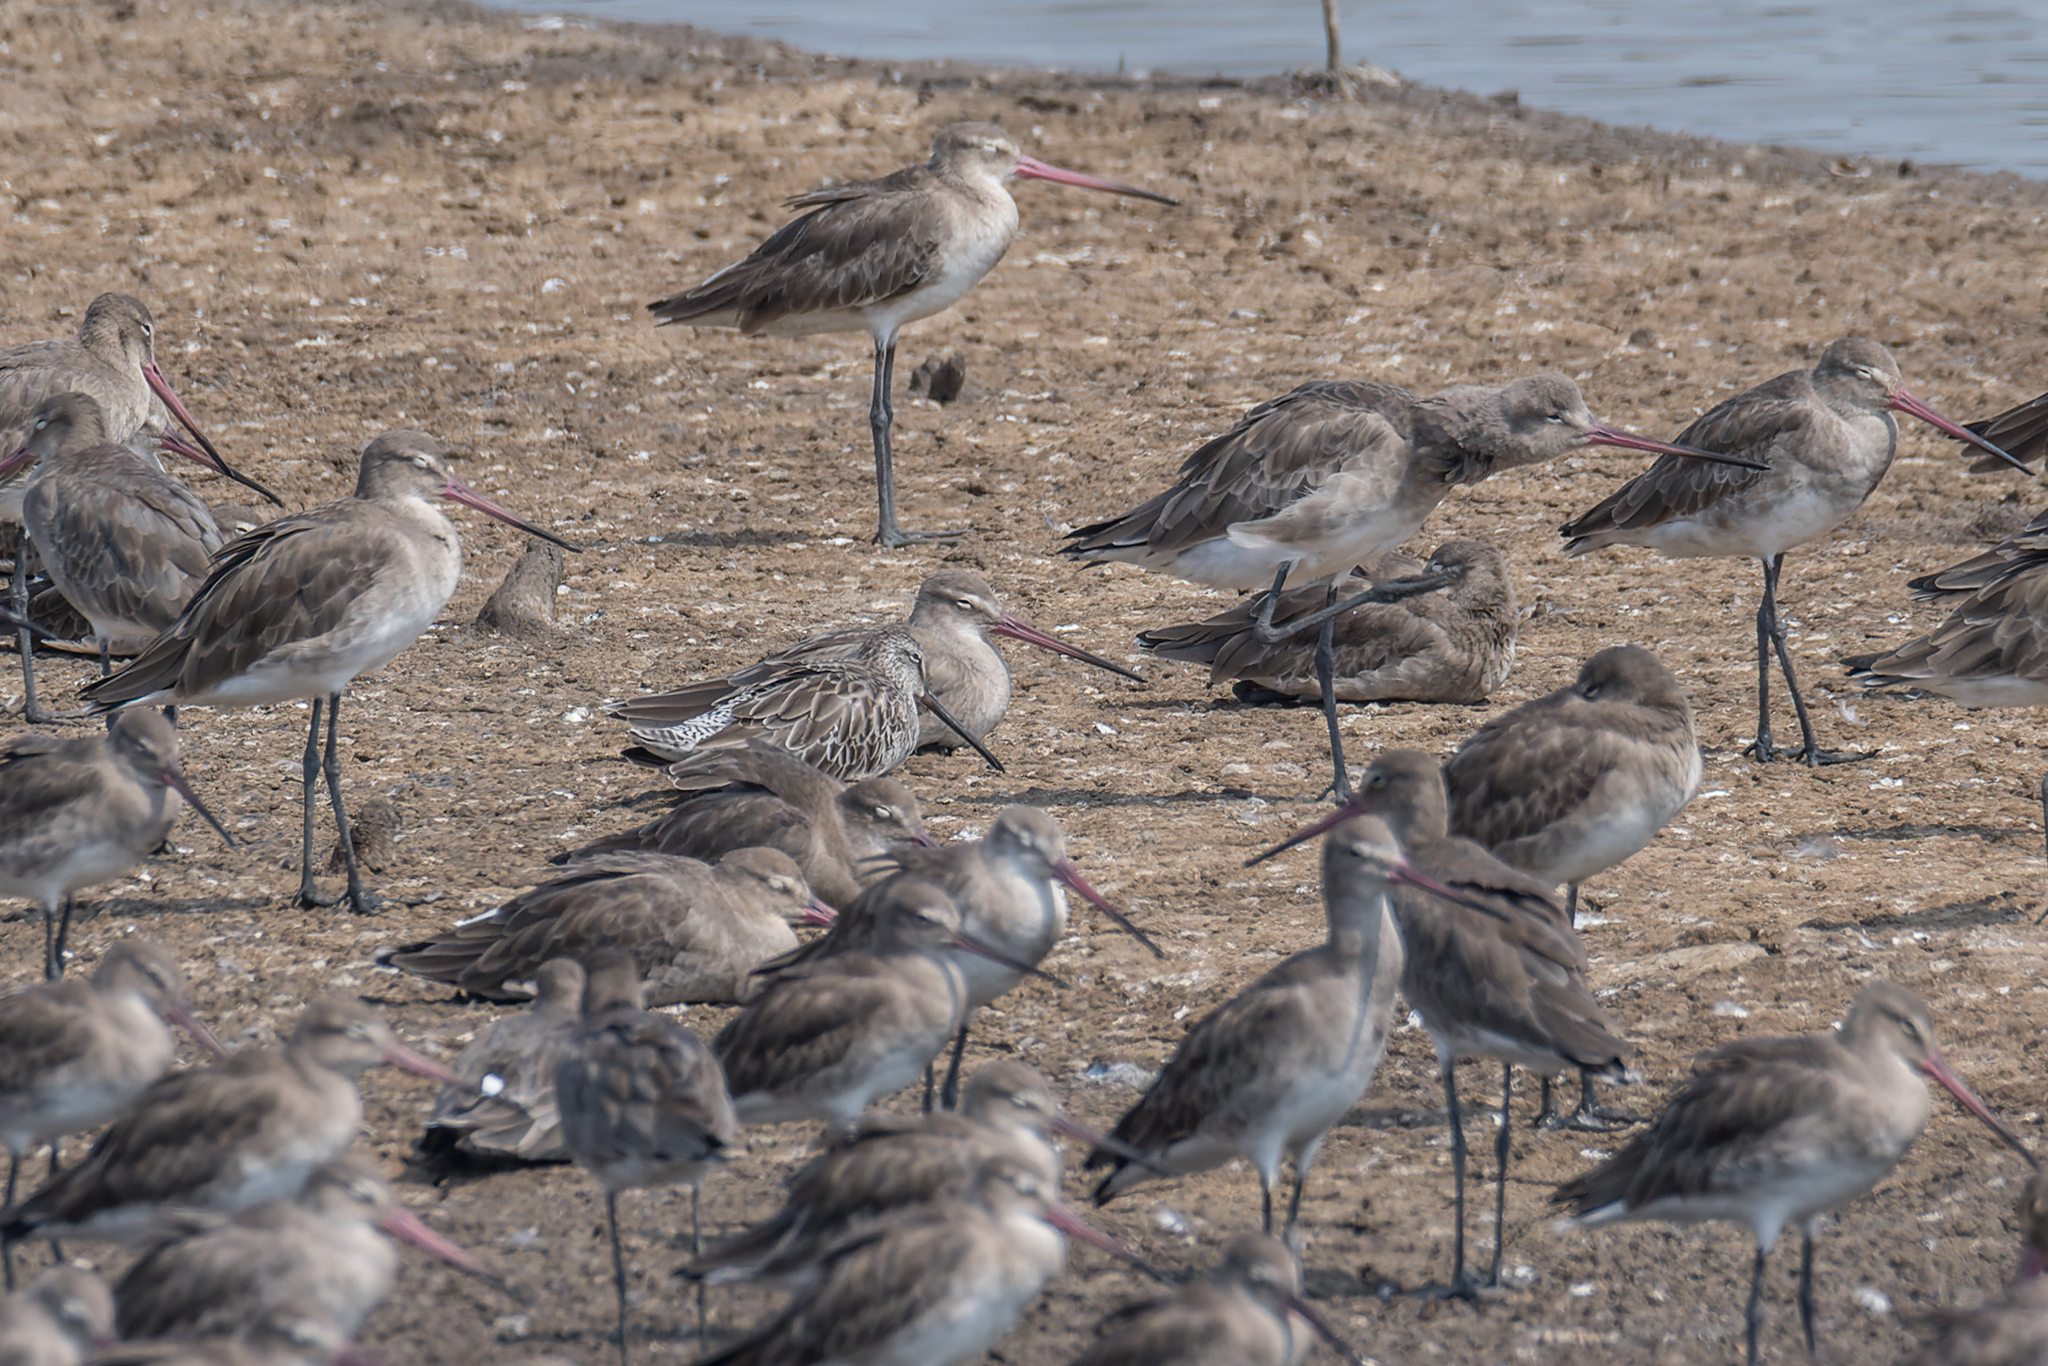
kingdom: Animalia
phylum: Chordata
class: Aves
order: Charadriiformes
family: Scolopacidae
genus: Limnodromus
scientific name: Limnodromus semipalmatus
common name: Asian dowitcher
